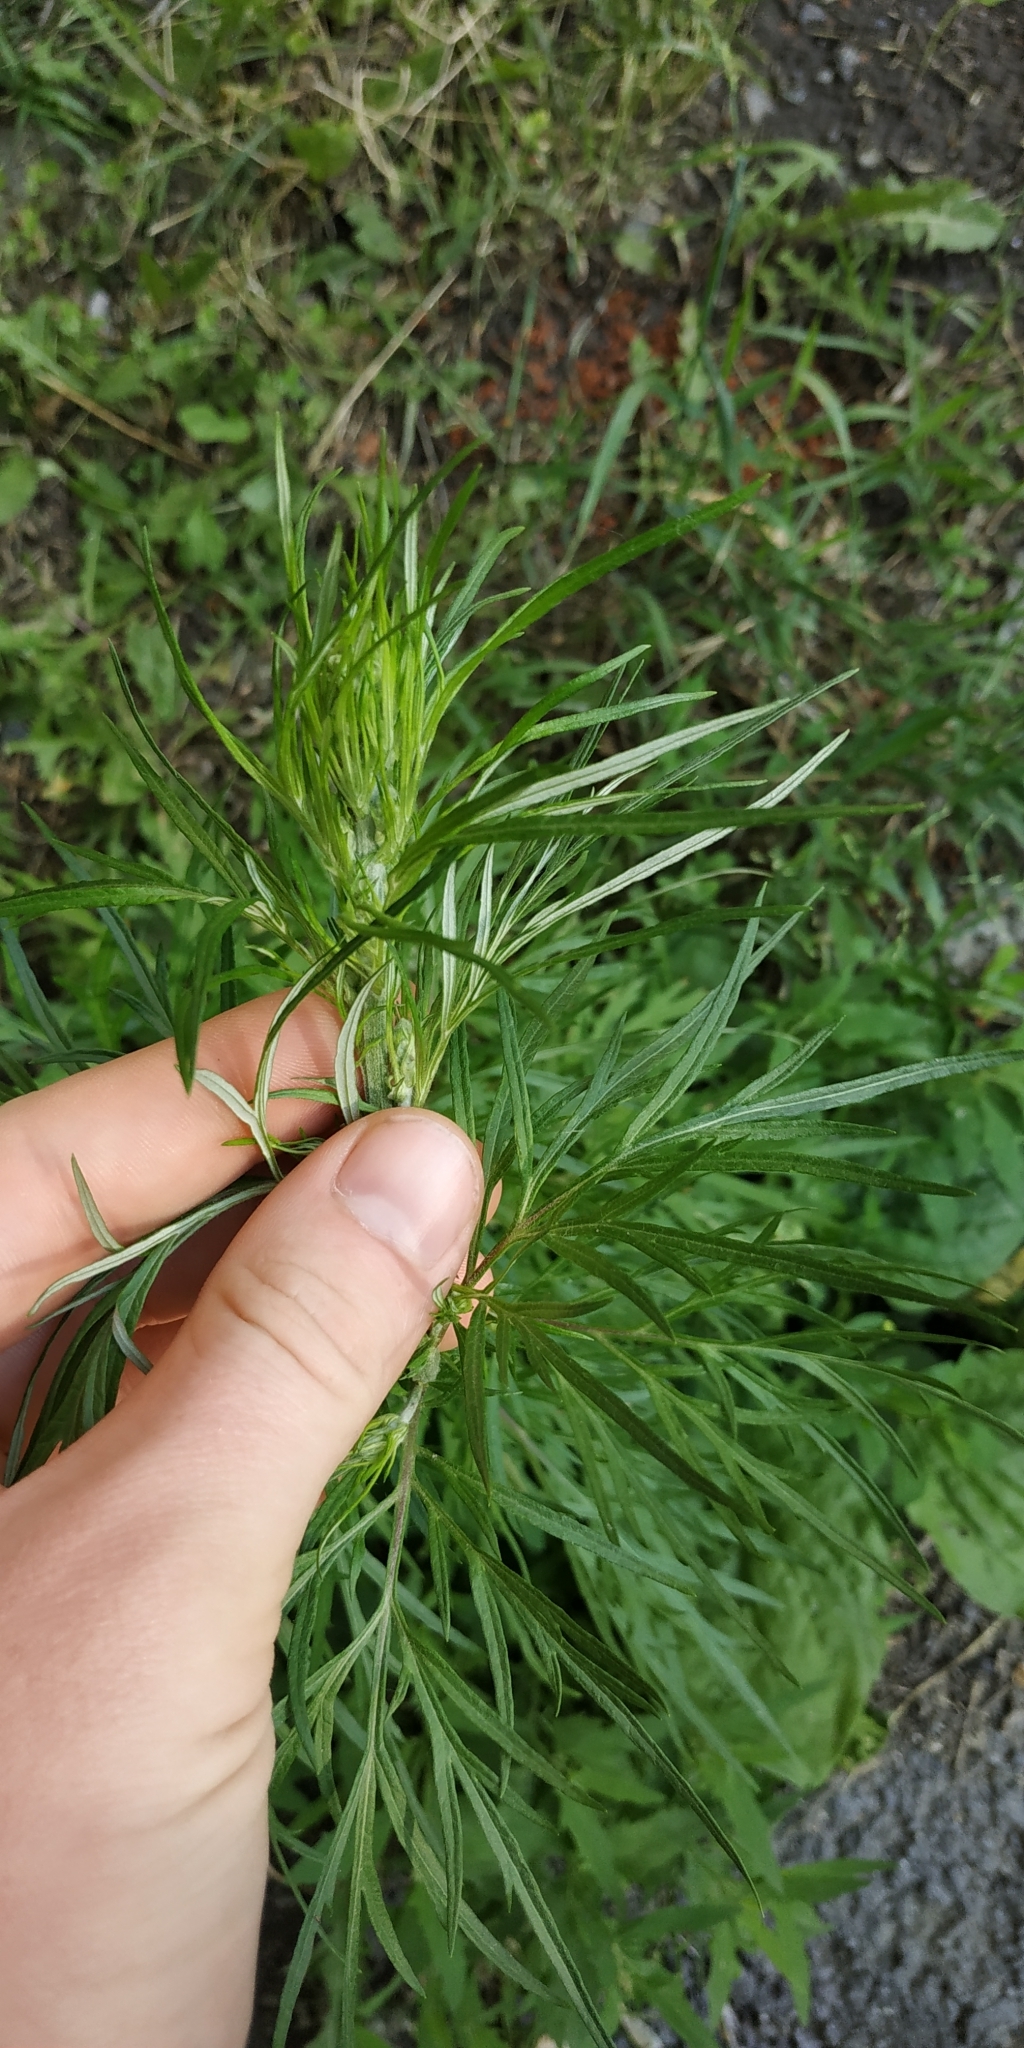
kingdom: Plantae
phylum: Tracheophyta
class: Magnoliopsida
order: Asterales
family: Asteraceae
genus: Artemisia
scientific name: Artemisia vulgaris
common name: Mugwort
